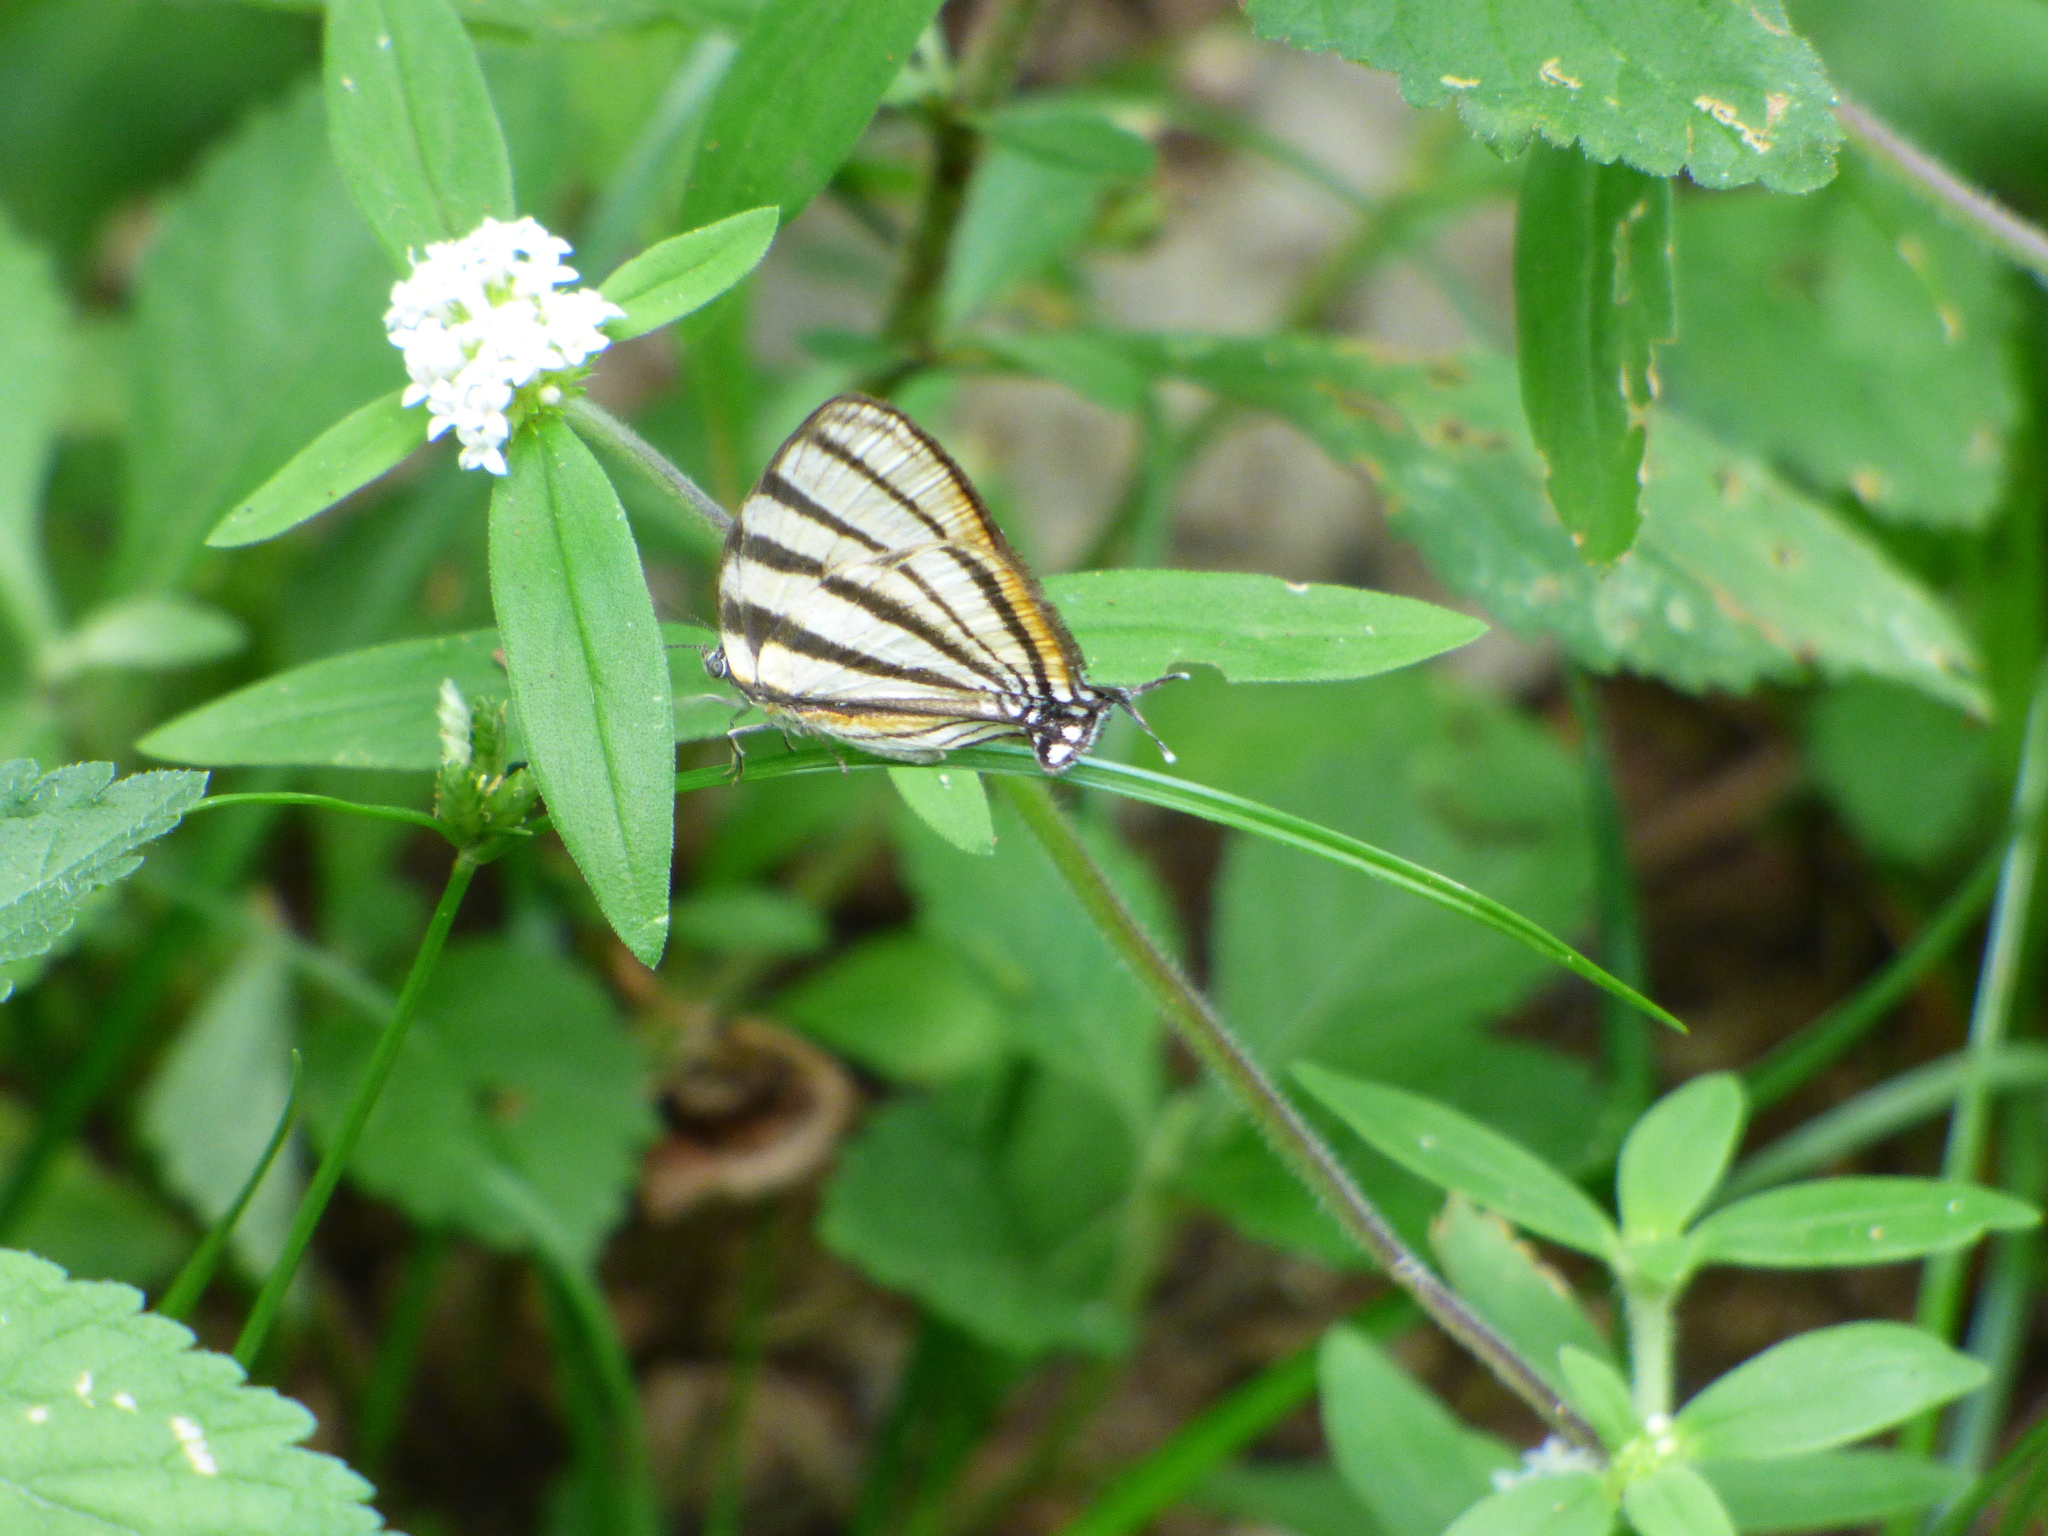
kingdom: Animalia
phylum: Arthropoda
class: Insecta
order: Lepidoptera
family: Lycaenidae
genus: Arawacus
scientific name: Arawacus separata
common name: Separated stripestreak
